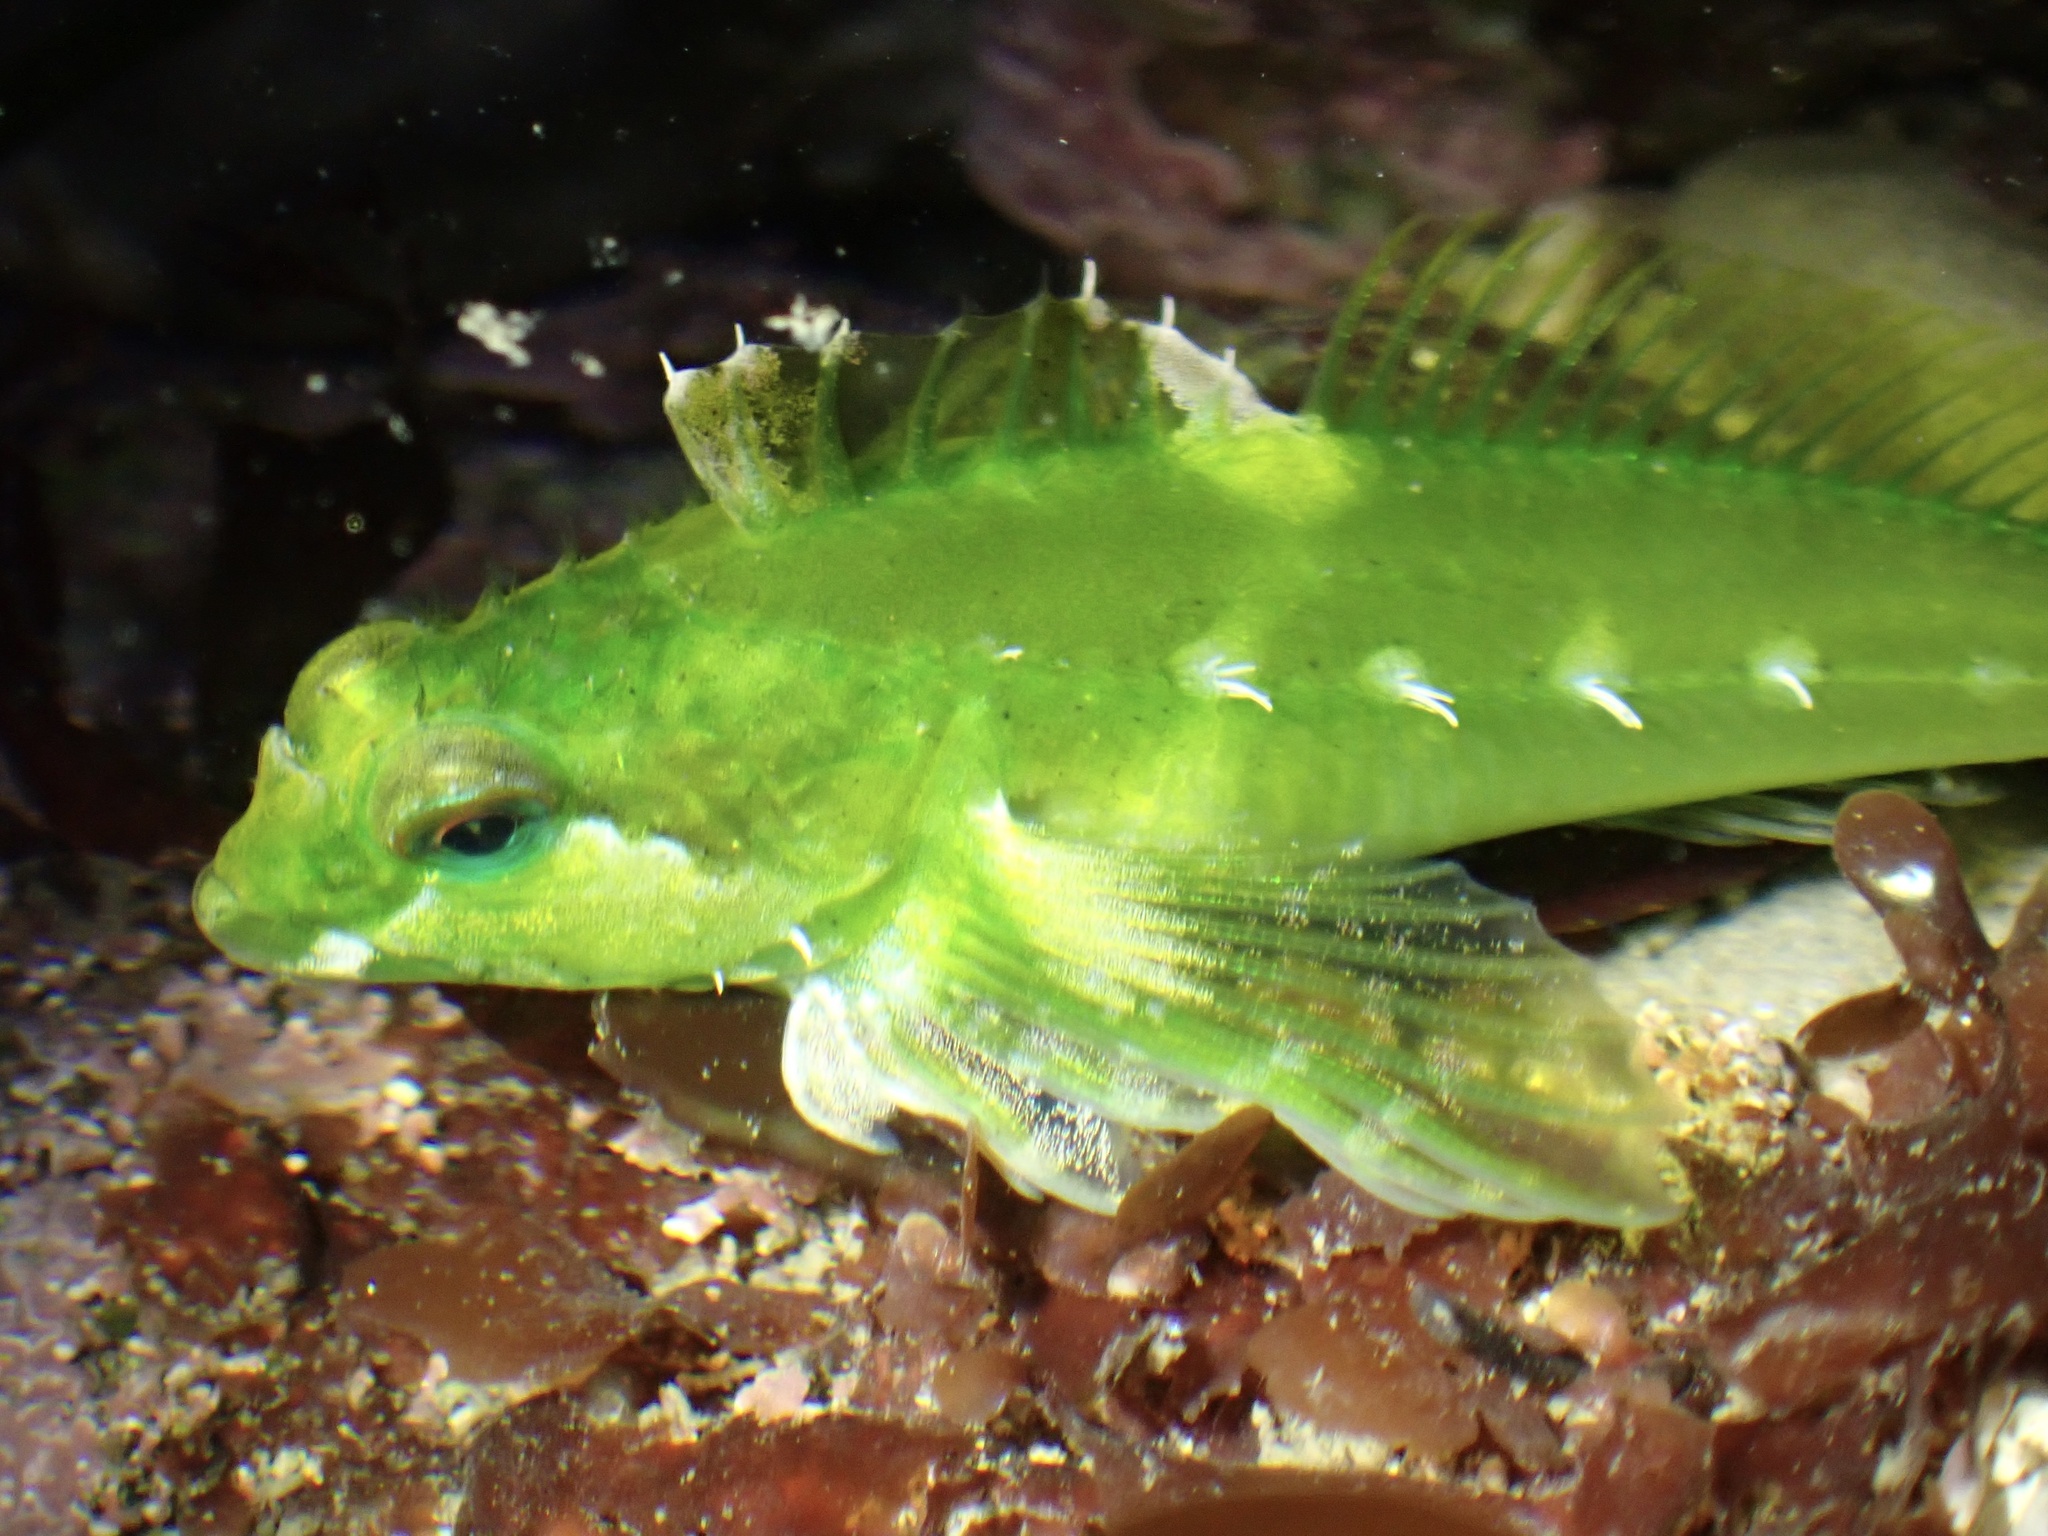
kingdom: Animalia
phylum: Chordata
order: Scorpaeniformes
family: Cottidae
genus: Oligocottus
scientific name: Oligocottus snyderi
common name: Fluffy sculpin
